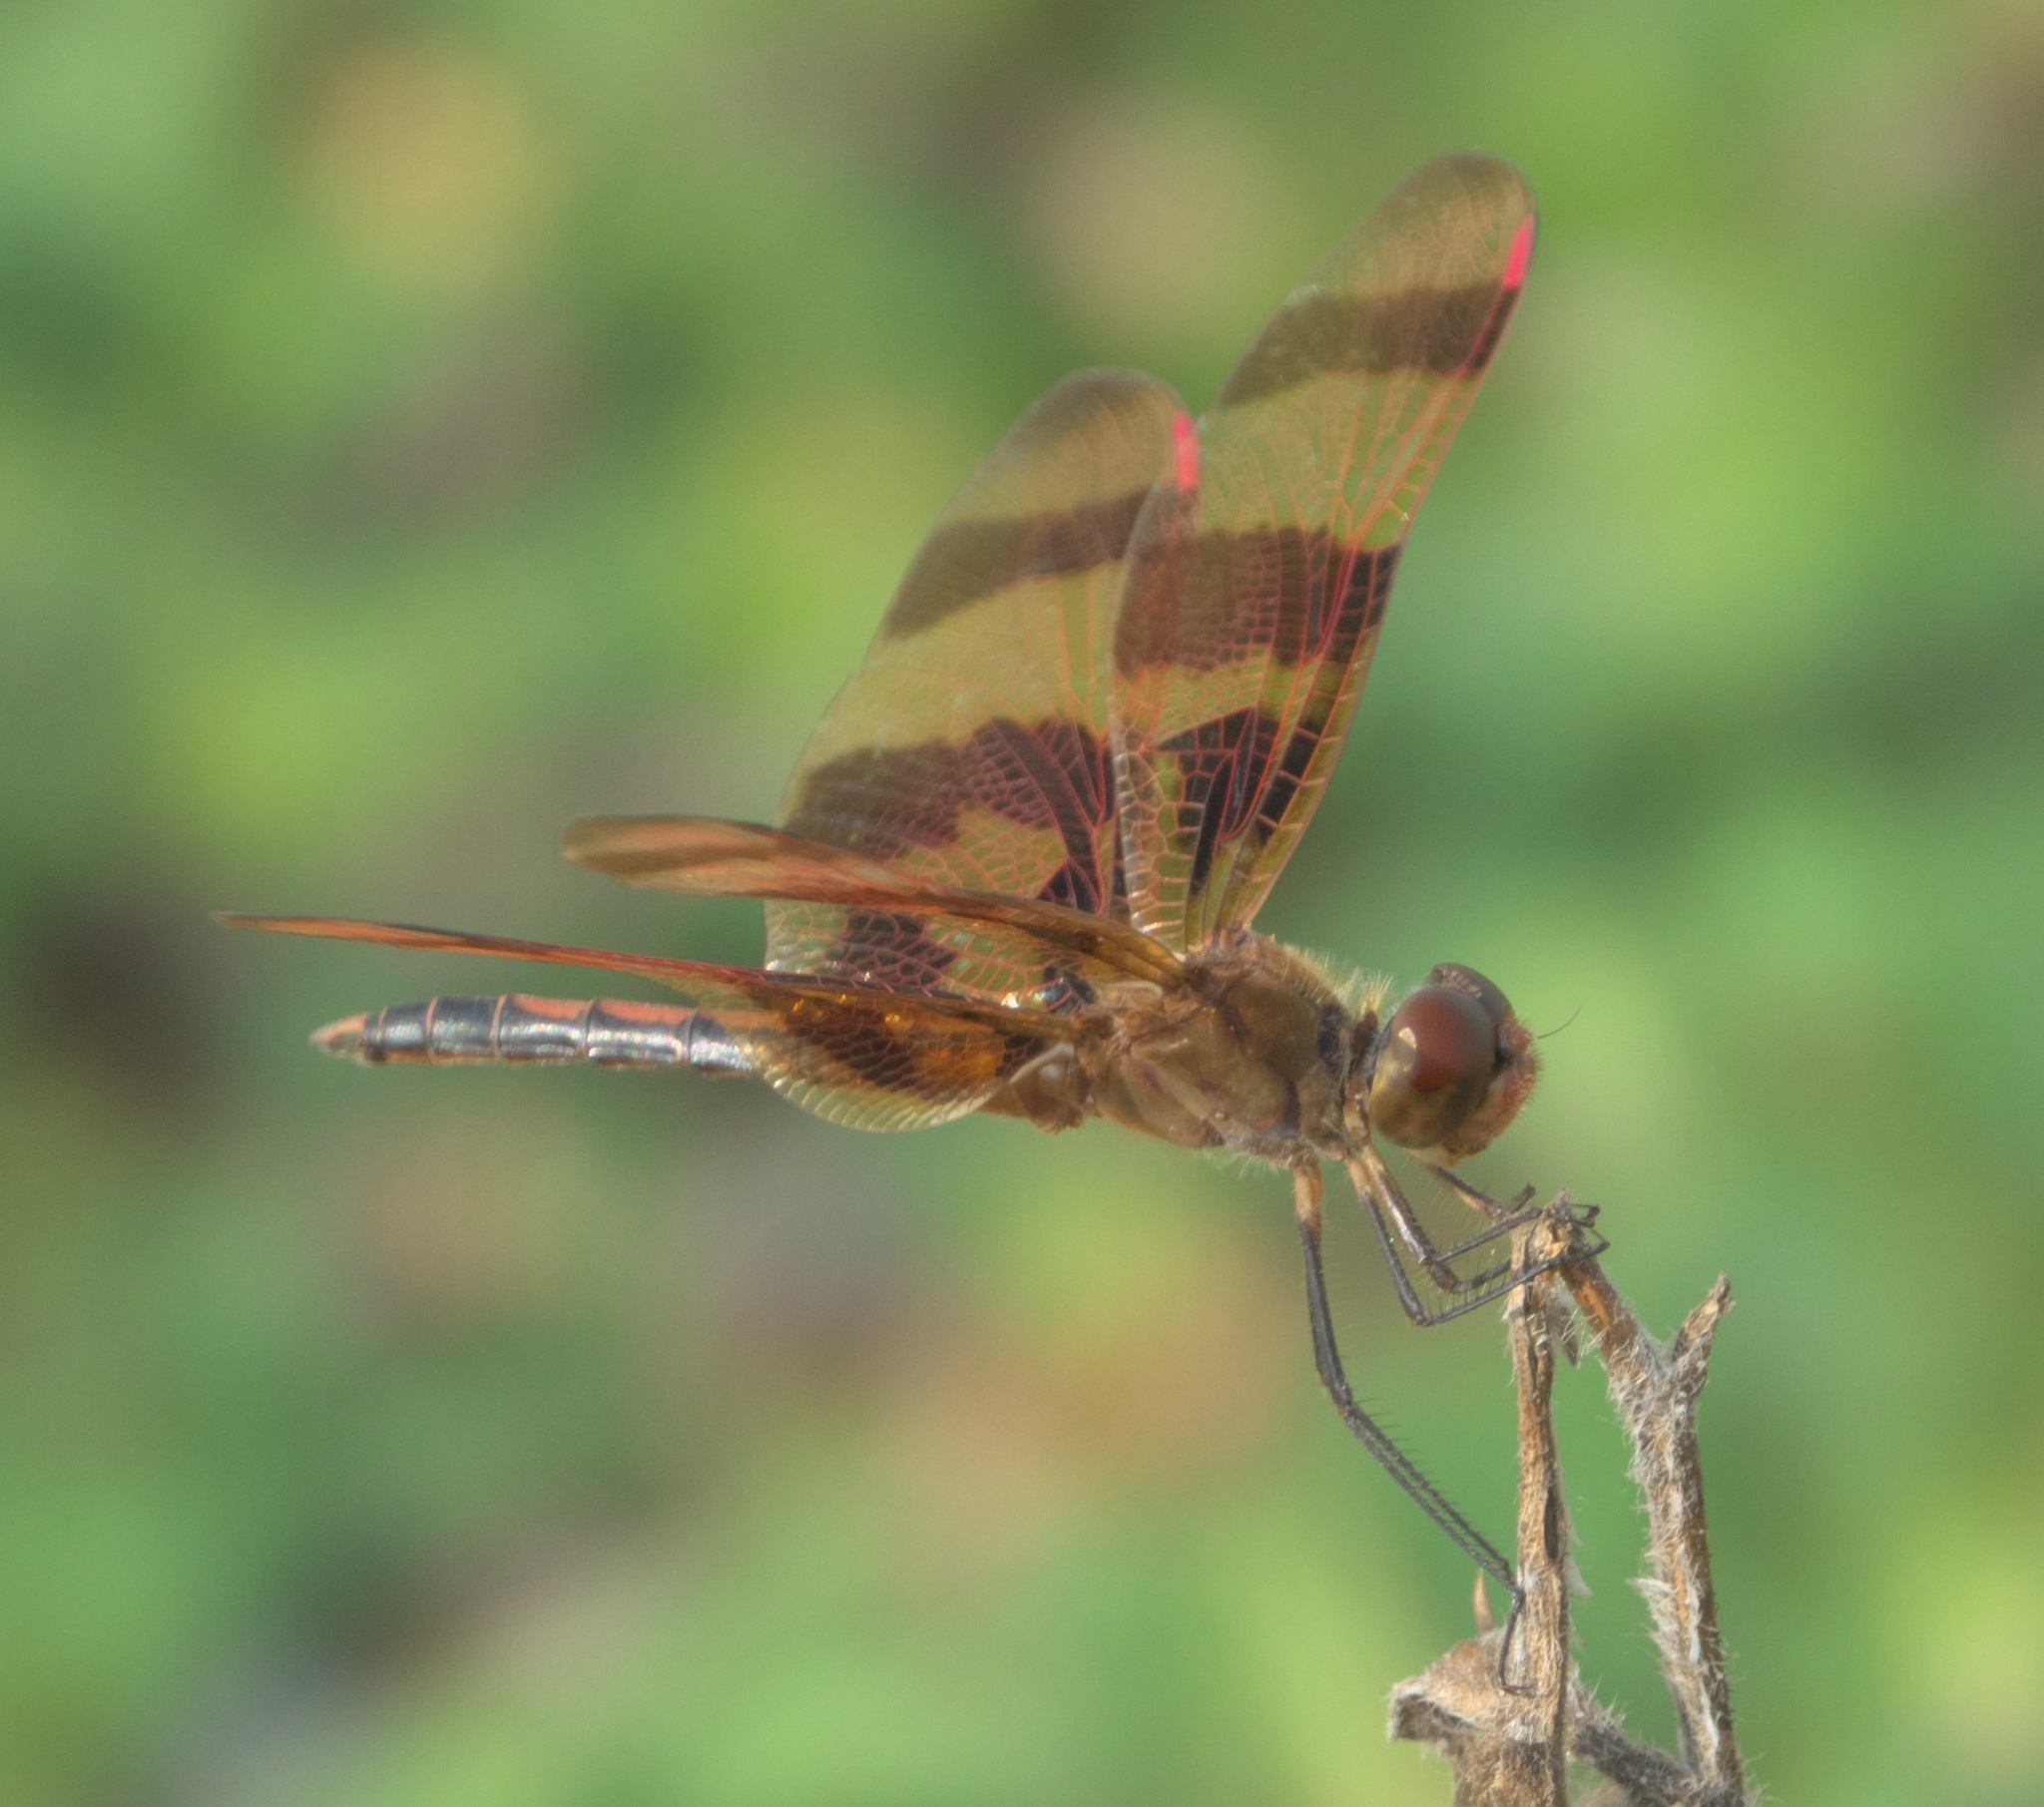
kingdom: Animalia
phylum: Arthropoda
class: Insecta
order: Odonata
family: Libellulidae
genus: Celithemis
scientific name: Celithemis eponina
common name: Halloween pennant
